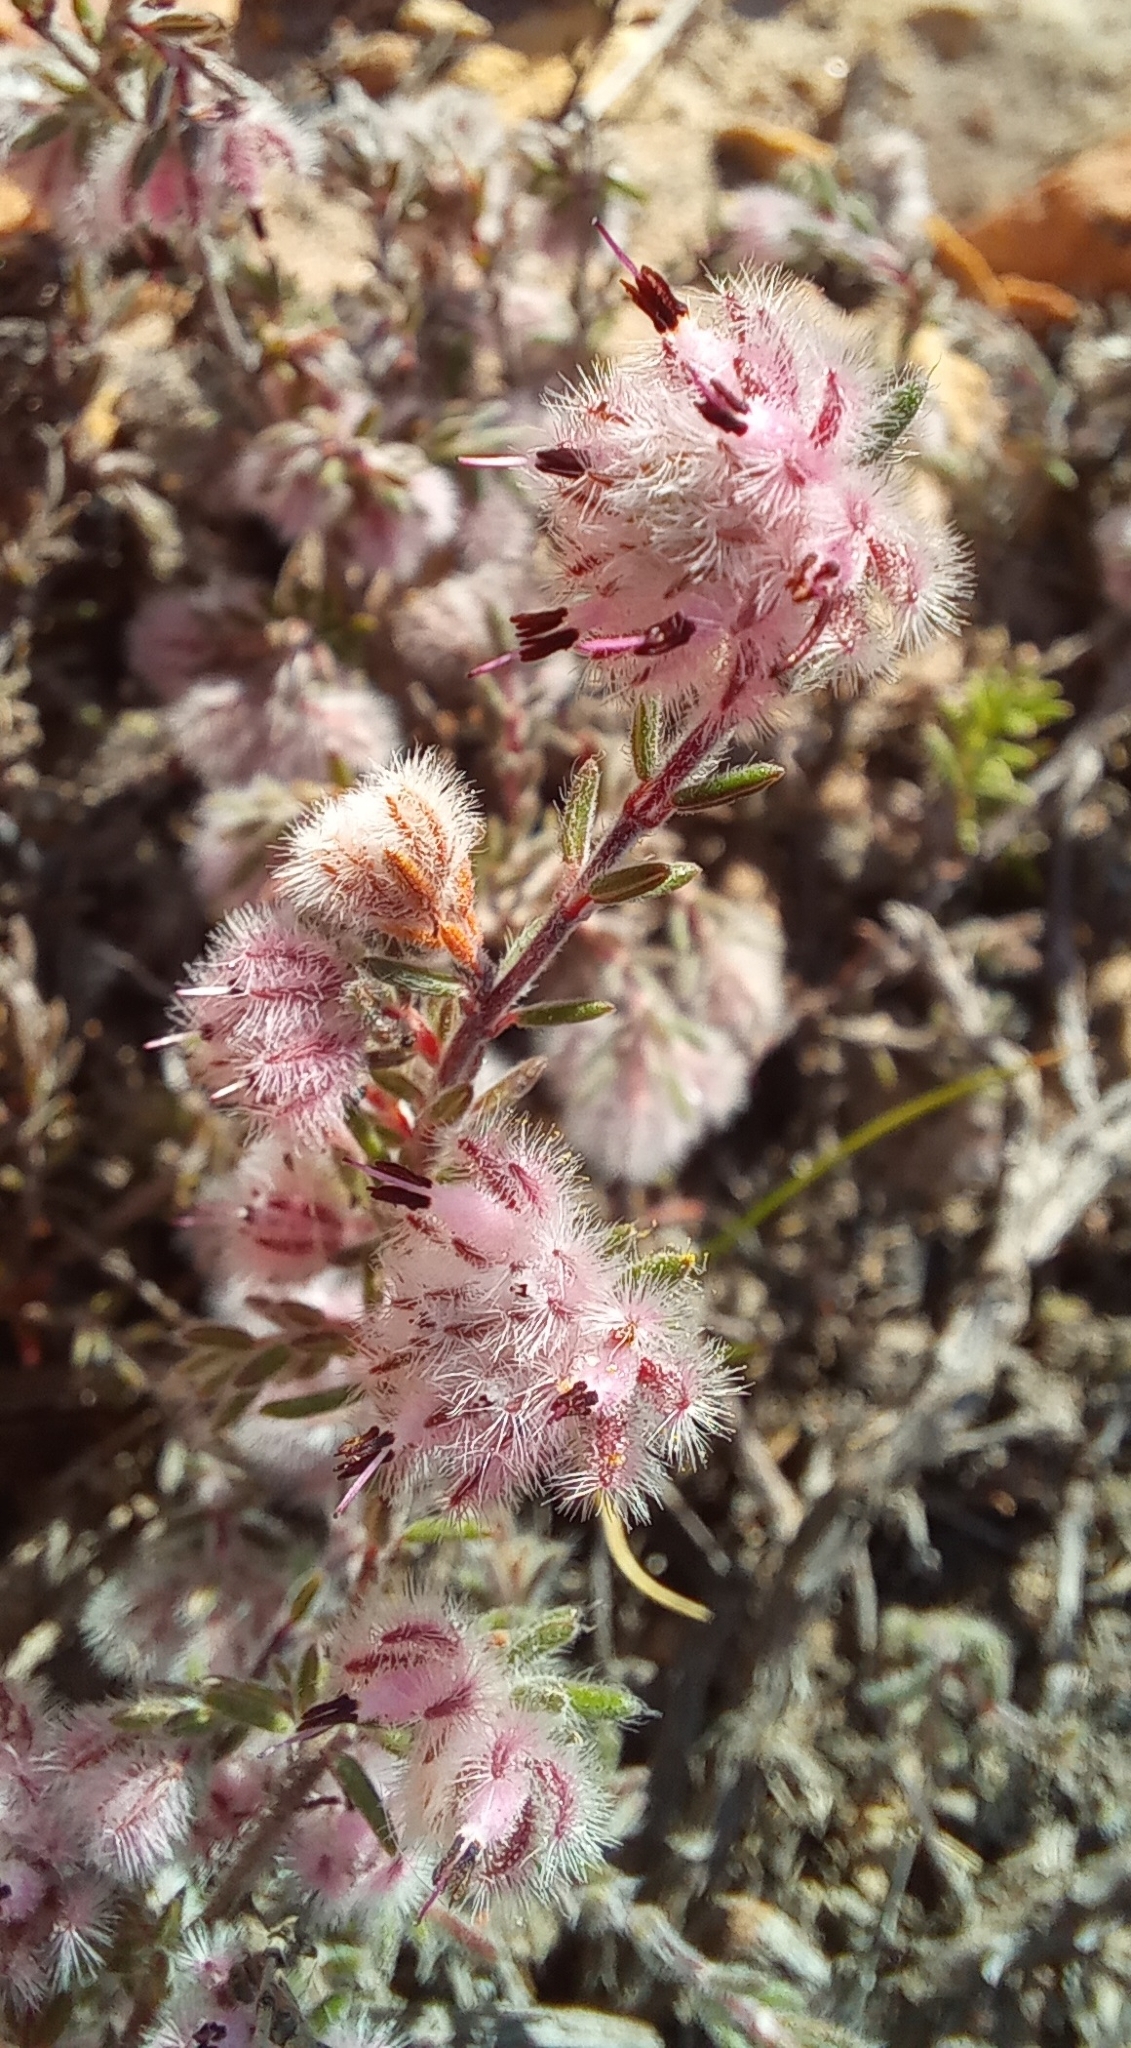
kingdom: Plantae
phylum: Tracheophyta
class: Magnoliopsida
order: Ericales
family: Ericaceae
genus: Erica
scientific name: Erica bruniades
